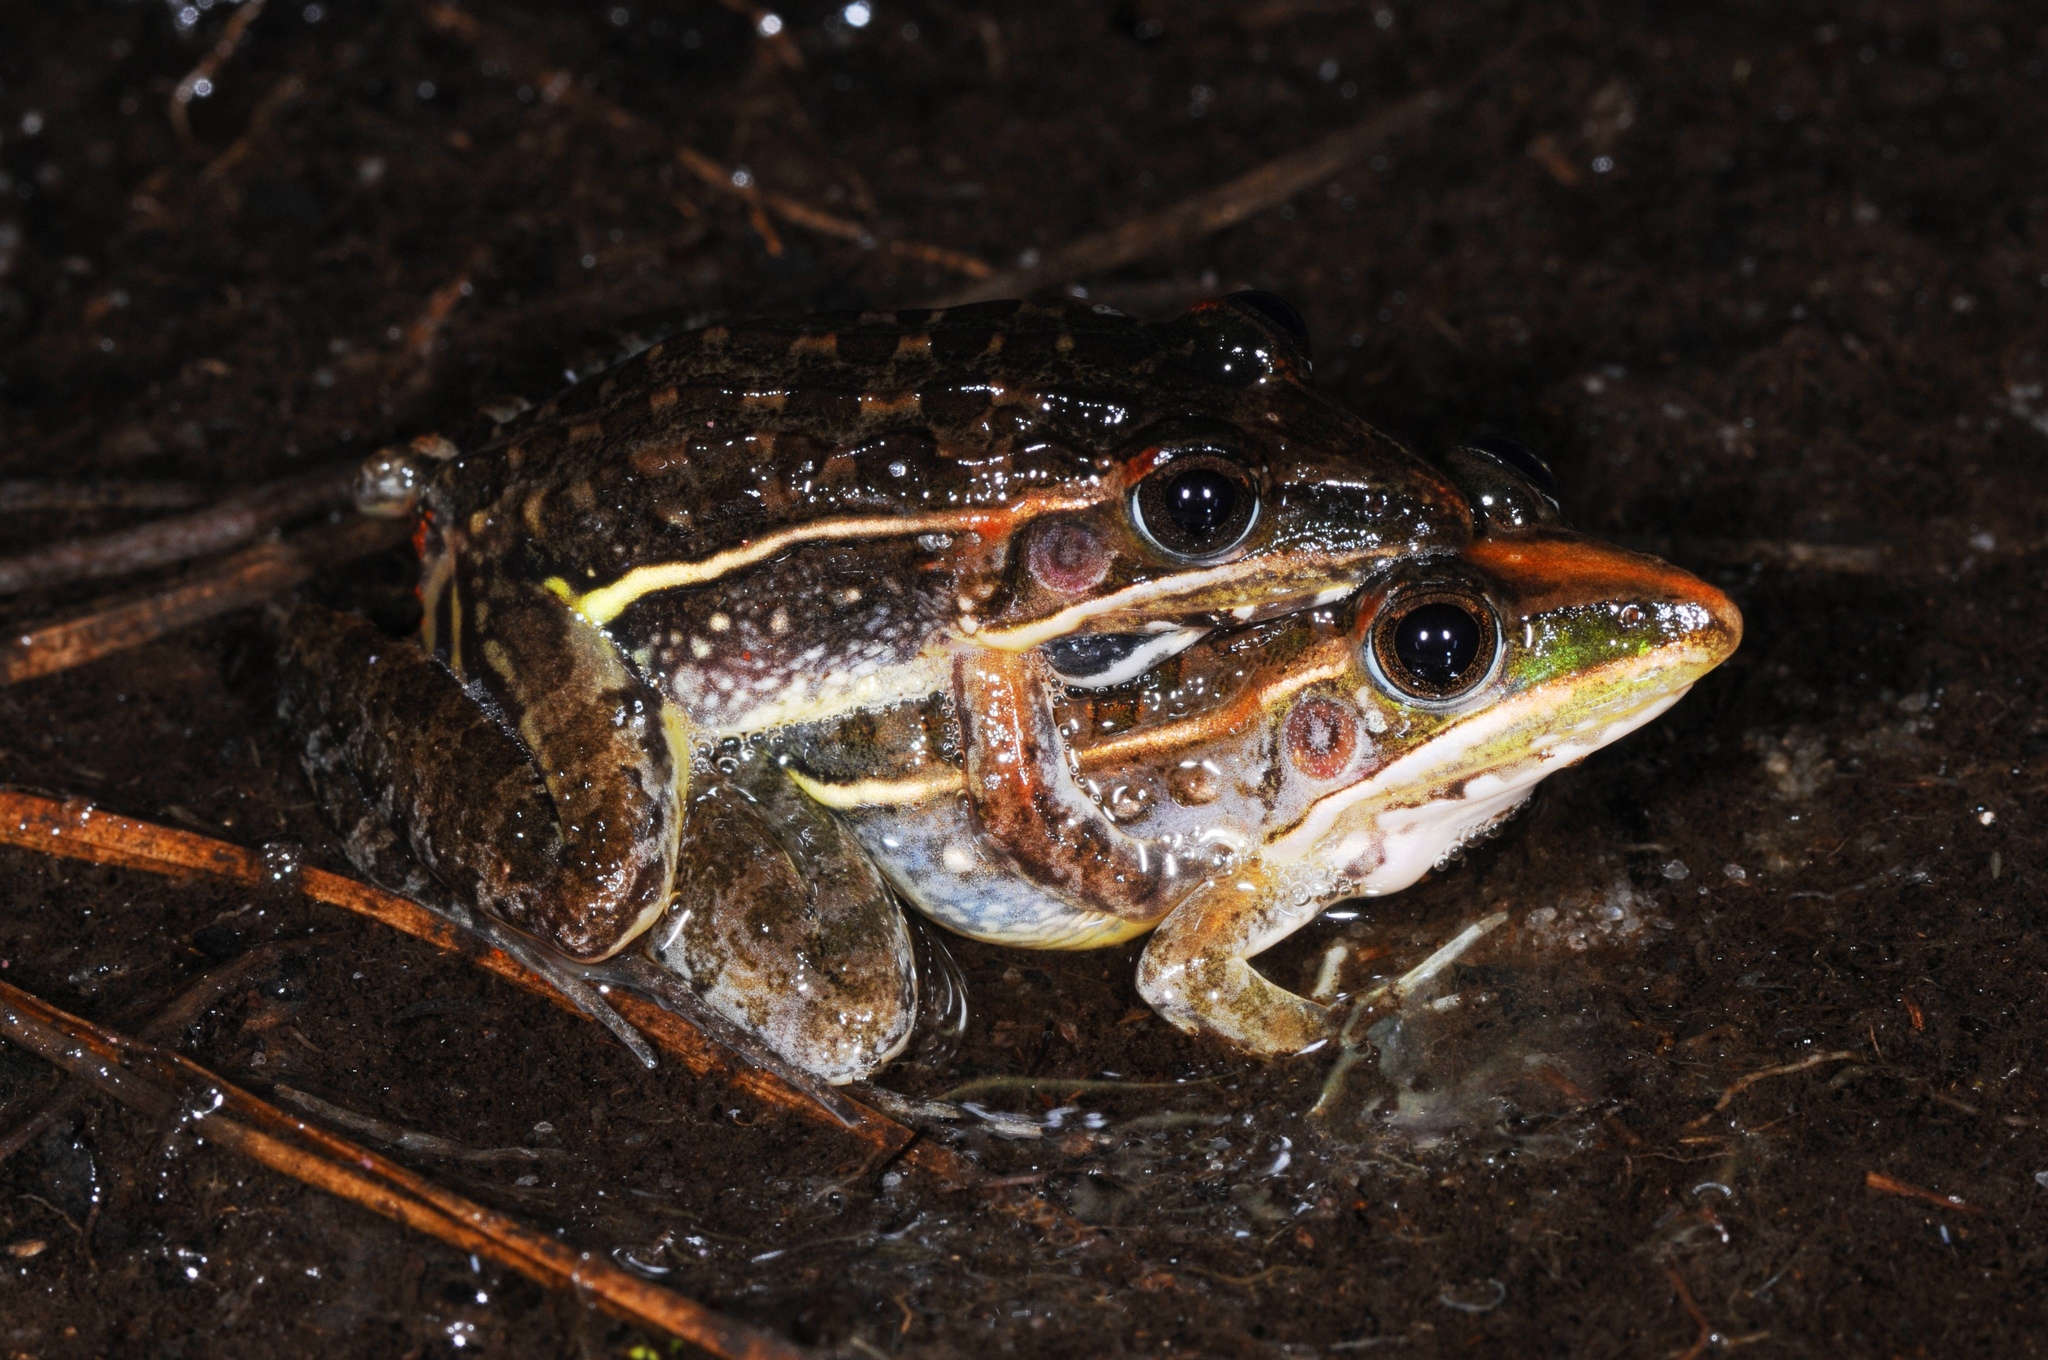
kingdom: Animalia
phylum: Chordata
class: Amphibia
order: Anura
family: Ptychadenidae
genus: Ptychadena
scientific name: Ptychadena taenioscelis
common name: Lukula grassland frog
